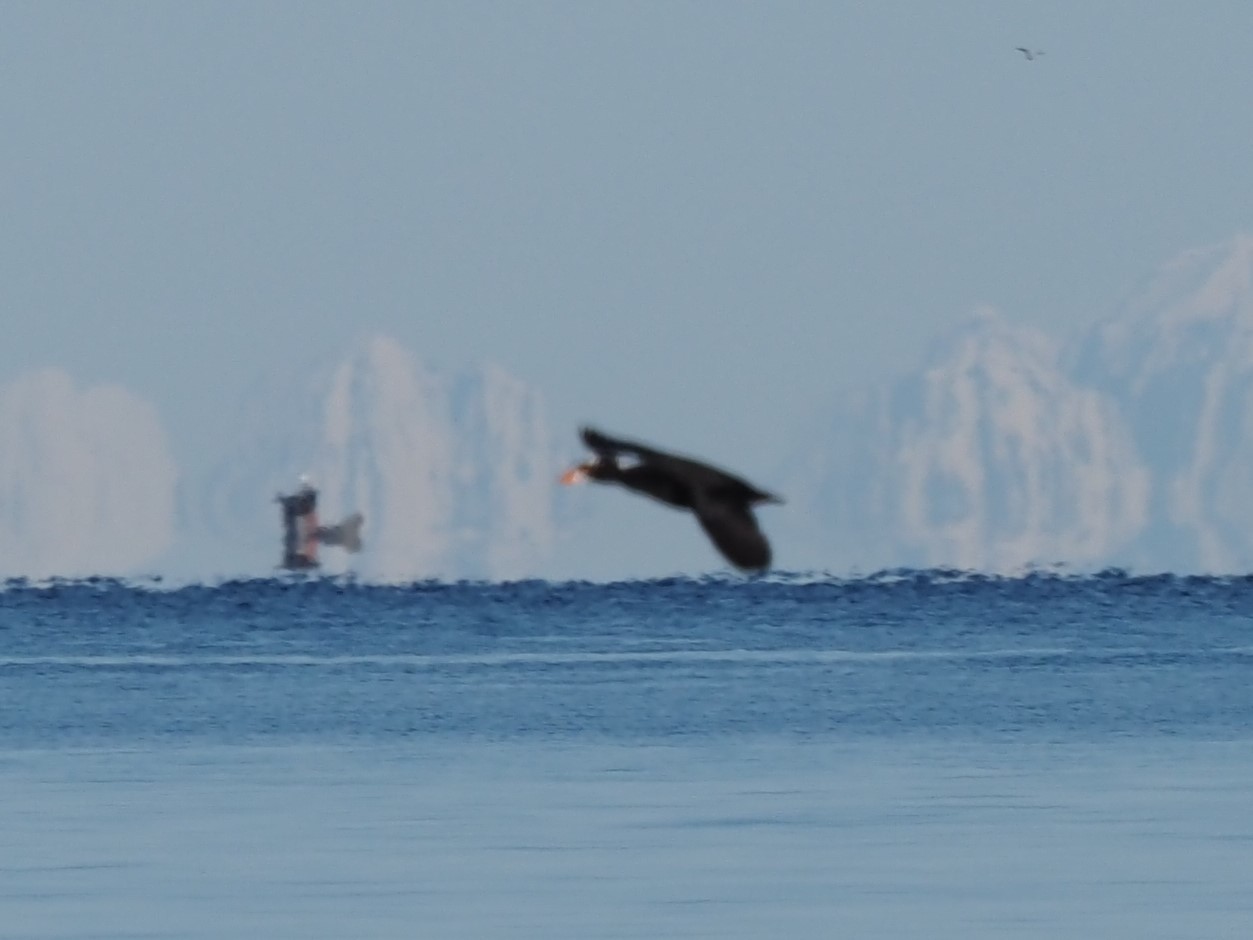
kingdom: Animalia
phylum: Chordata
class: Aves
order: Anseriformes
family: Anatidae
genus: Melanitta
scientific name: Melanitta perspicillata
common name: Surf scoter
